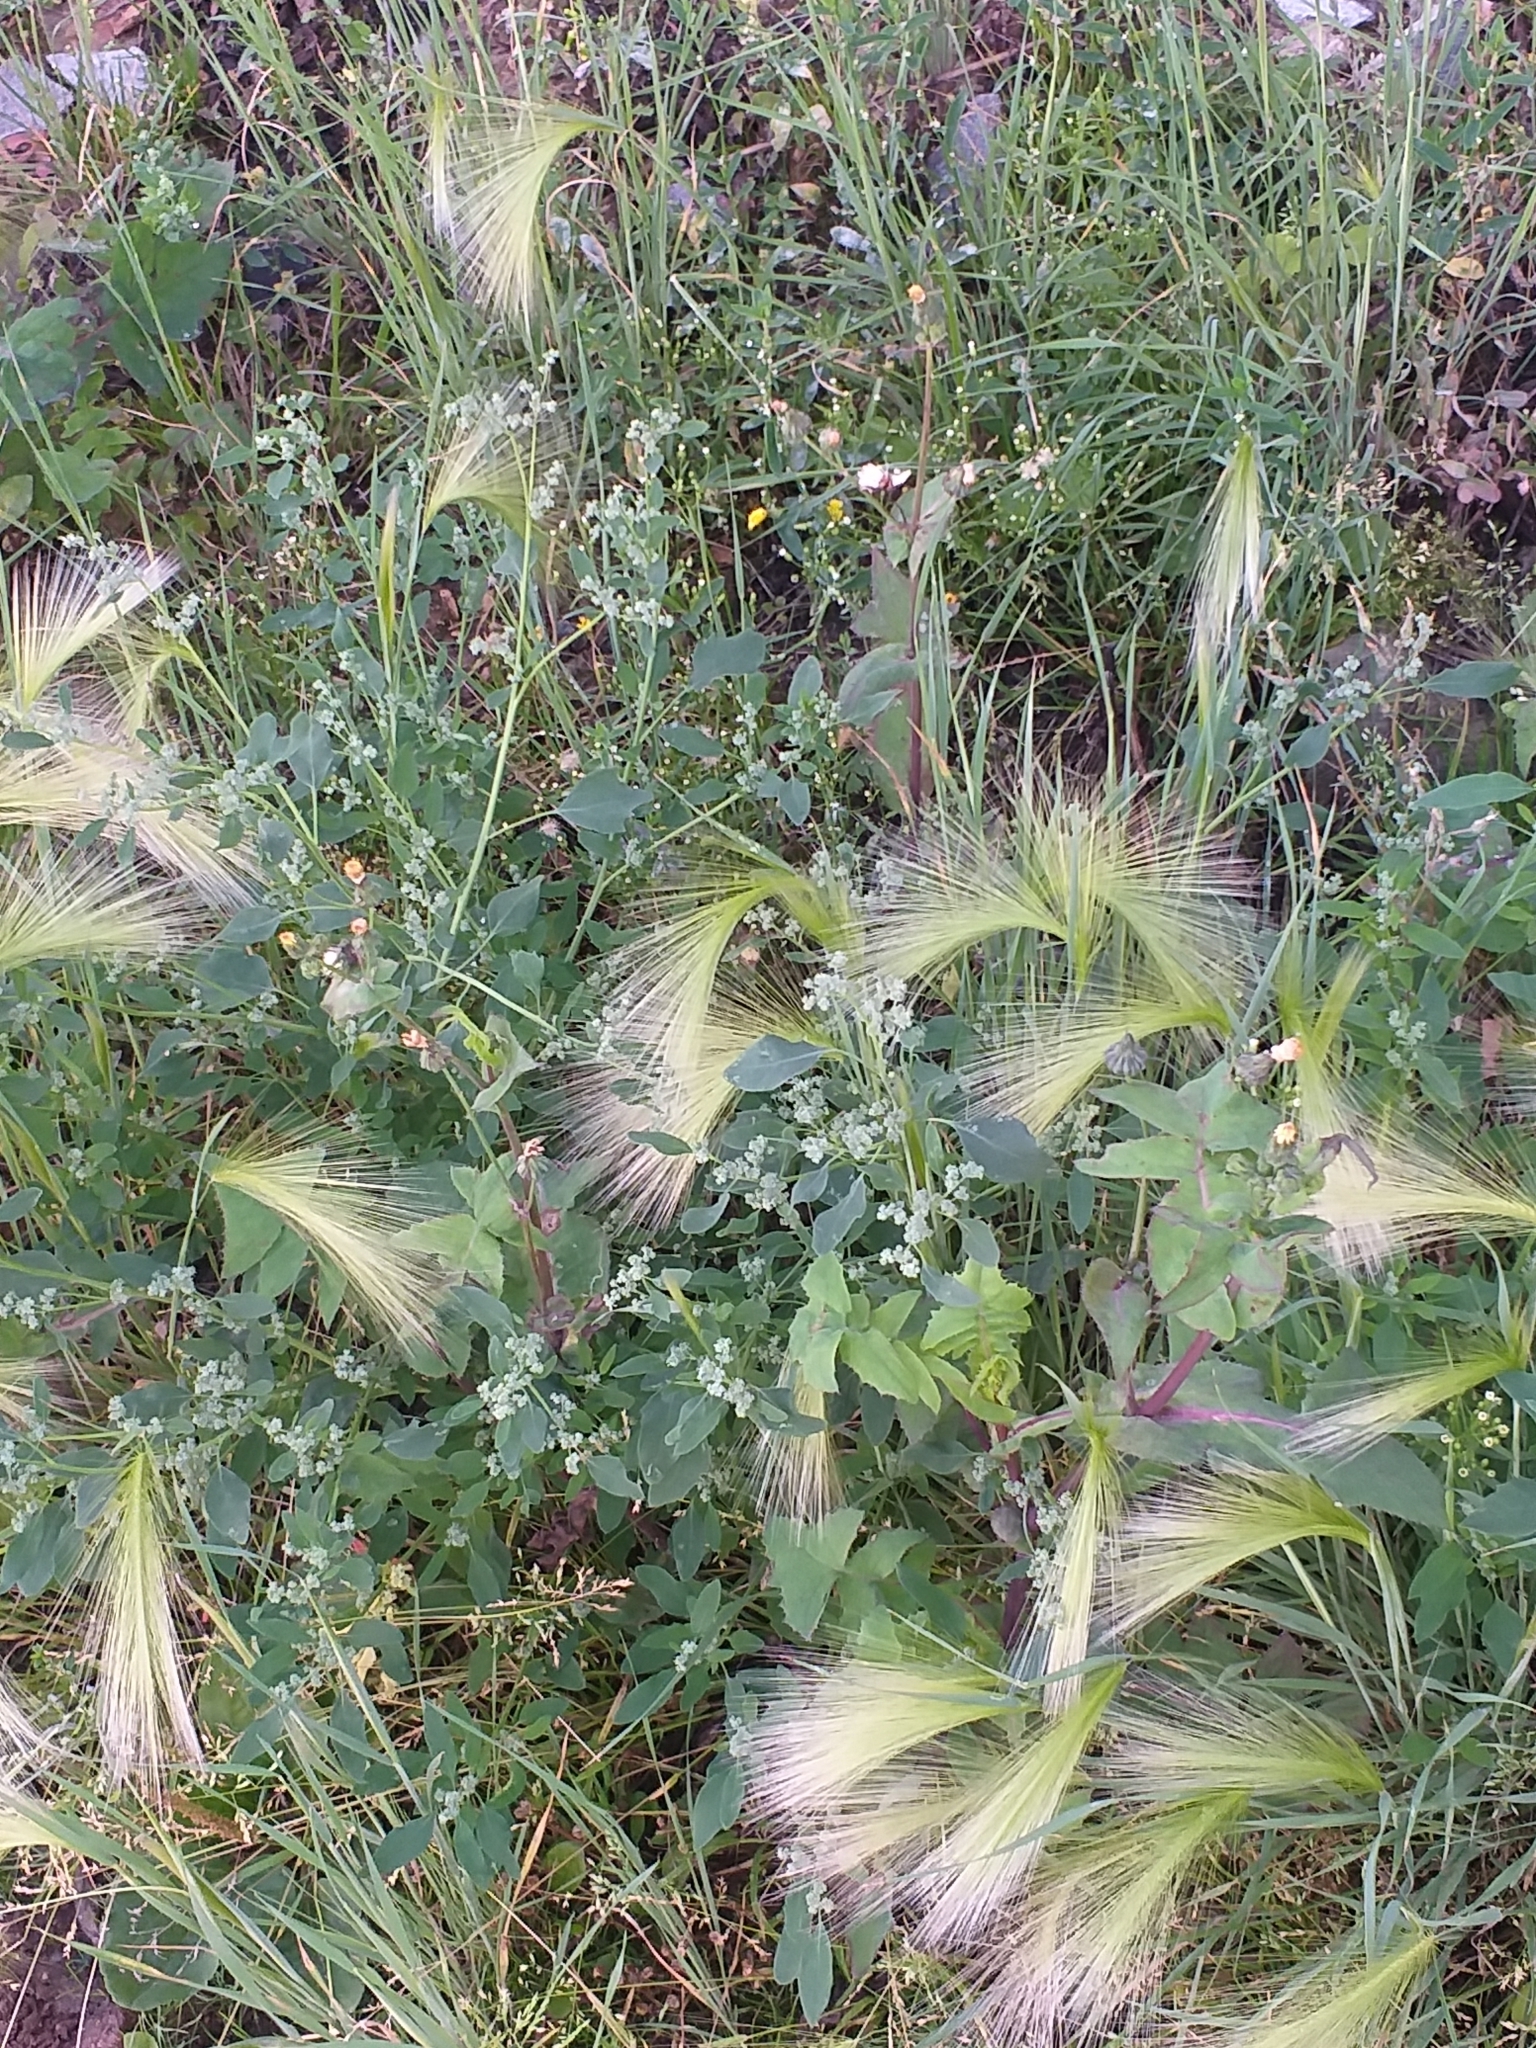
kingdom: Plantae
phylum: Tracheophyta
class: Liliopsida
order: Poales
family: Poaceae
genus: Hordeum
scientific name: Hordeum jubatum
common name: Foxtail barley
